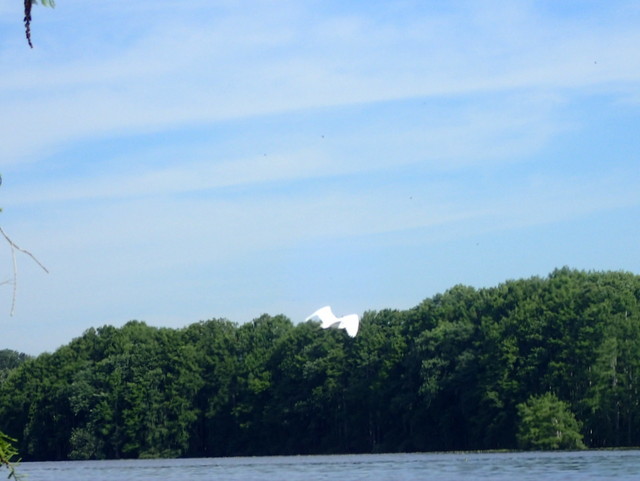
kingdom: Animalia
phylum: Chordata
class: Aves
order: Pelecaniformes
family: Ardeidae
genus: Ardea
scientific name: Ardea alba
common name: Great egret
